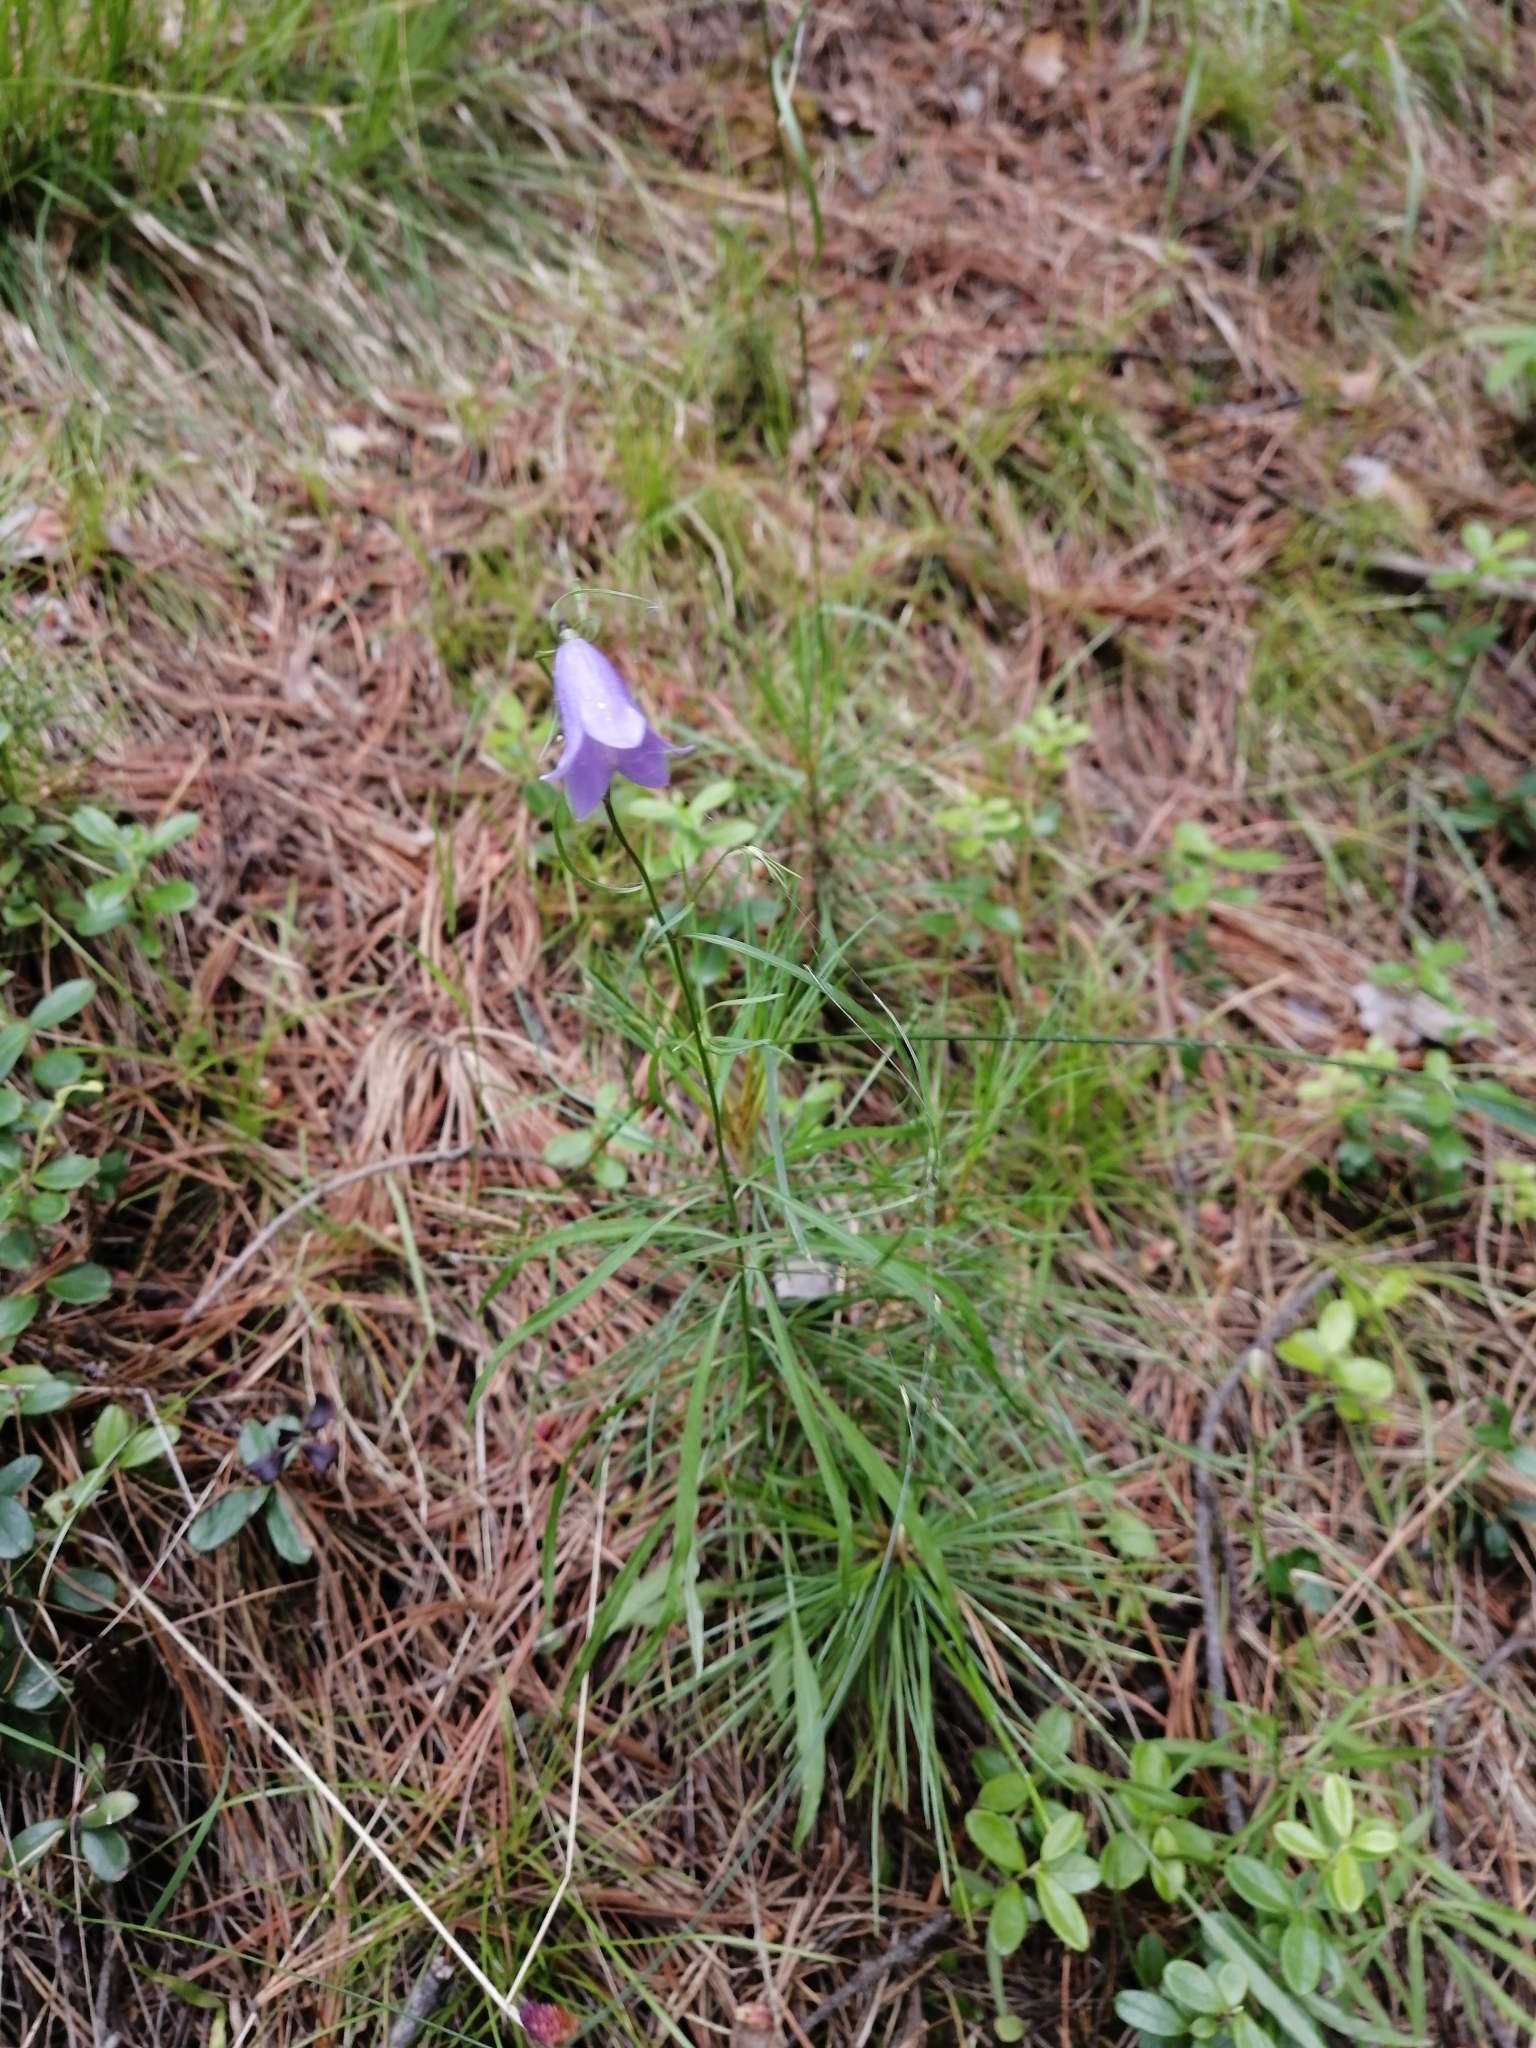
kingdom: Plantae
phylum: Tracheophyta
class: Magnoliopsida
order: Asterales
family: Campanulaceae
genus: Campanula
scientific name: Campanula rotundifolia
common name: Harebell
